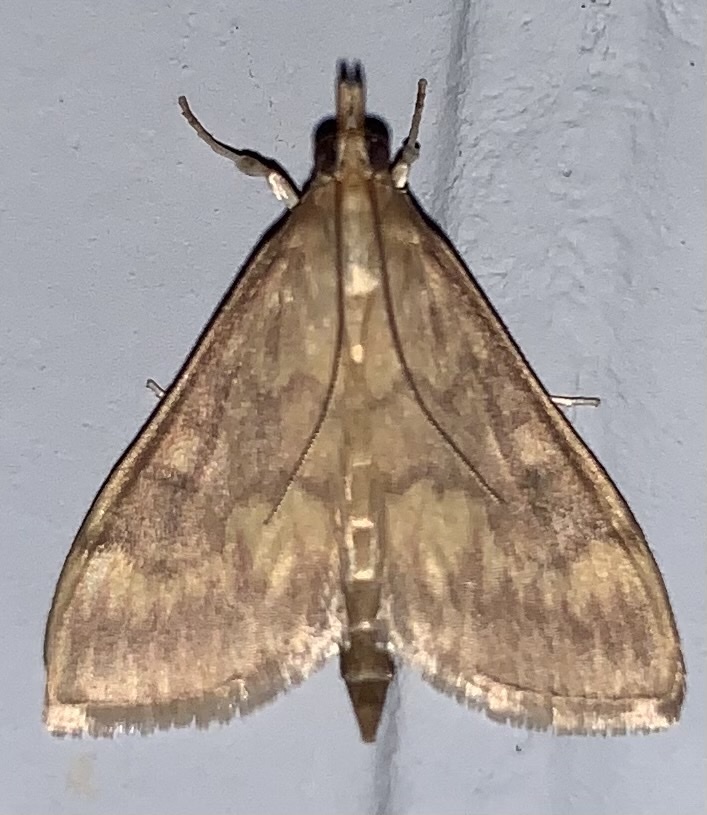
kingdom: Animalia
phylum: Arthropoda
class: Insecta
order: Lepidoptera
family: Crambidae
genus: Ostrinia
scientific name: Ostrinia nubilalis
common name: European corn borer
